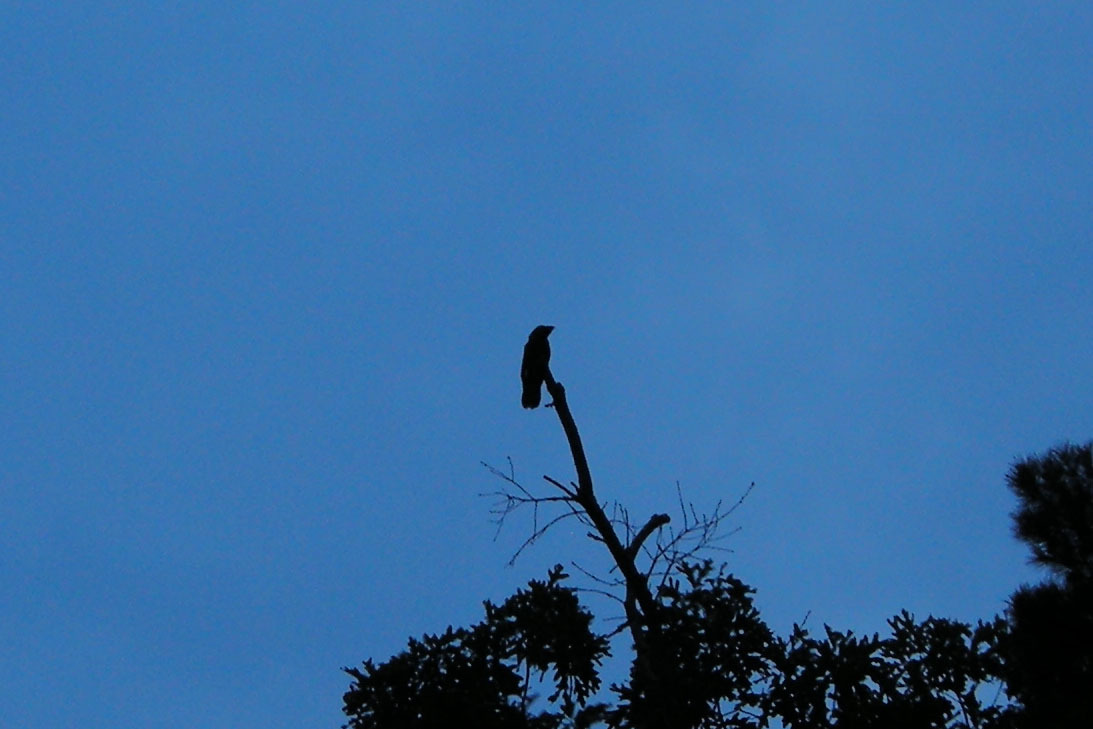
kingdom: Animalia
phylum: Chordata
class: Aves
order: Caprimulgiformes
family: Caprimulgidae
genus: Antrostomus
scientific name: Antrostomus carolinensis
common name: Chuck-will's-widow
